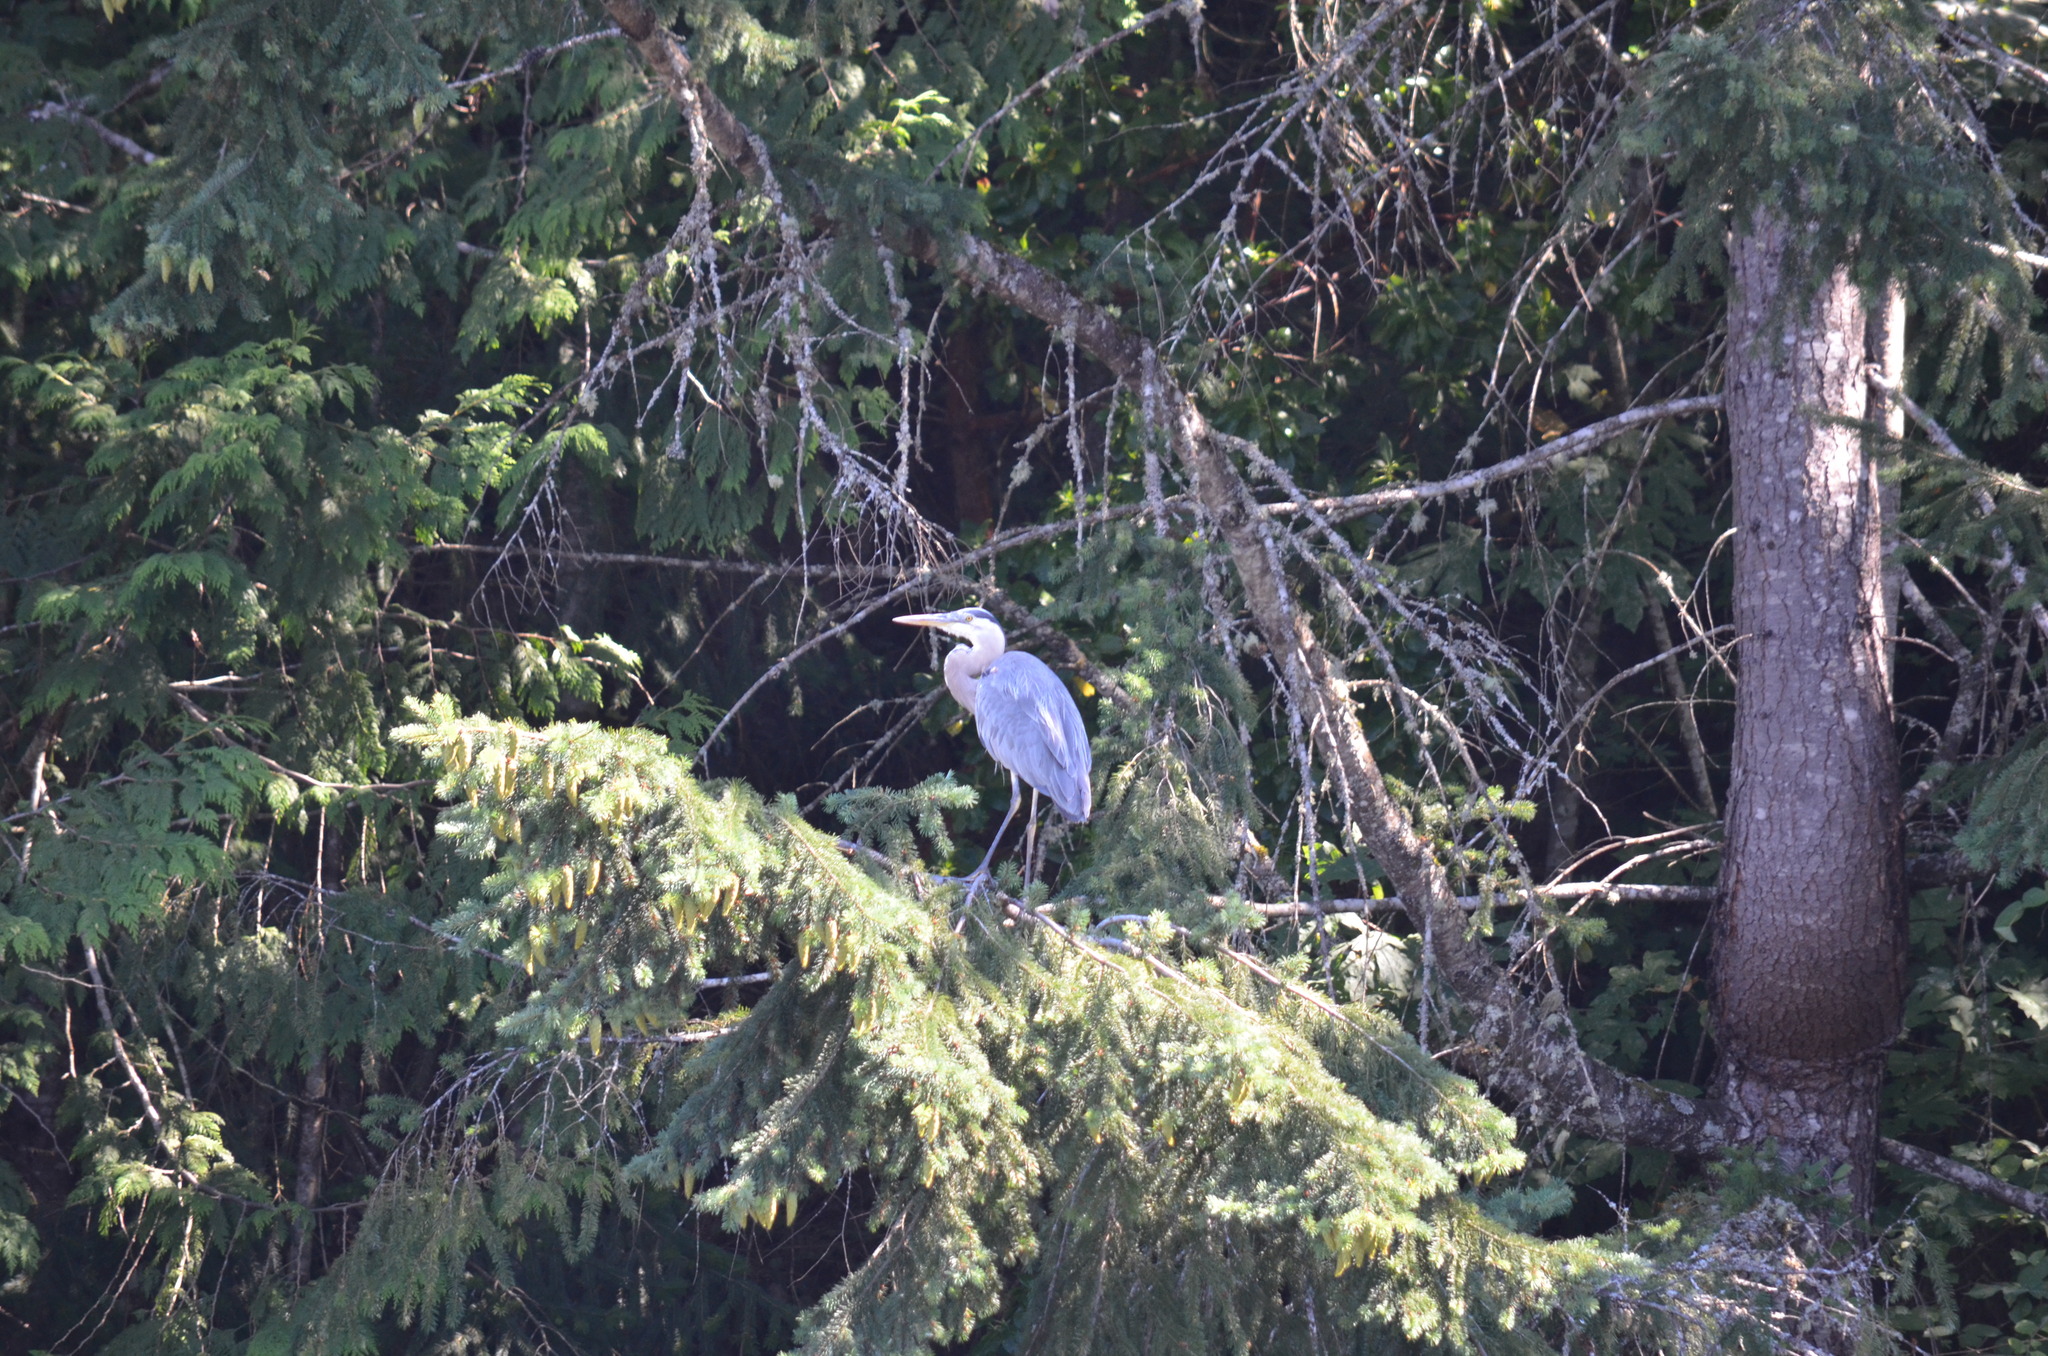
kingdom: Animalia
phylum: Chordata
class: Aves
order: Pelecaniformes
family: Ardeidae
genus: Ardea
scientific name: Ardea herodias
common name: Great blue heron
